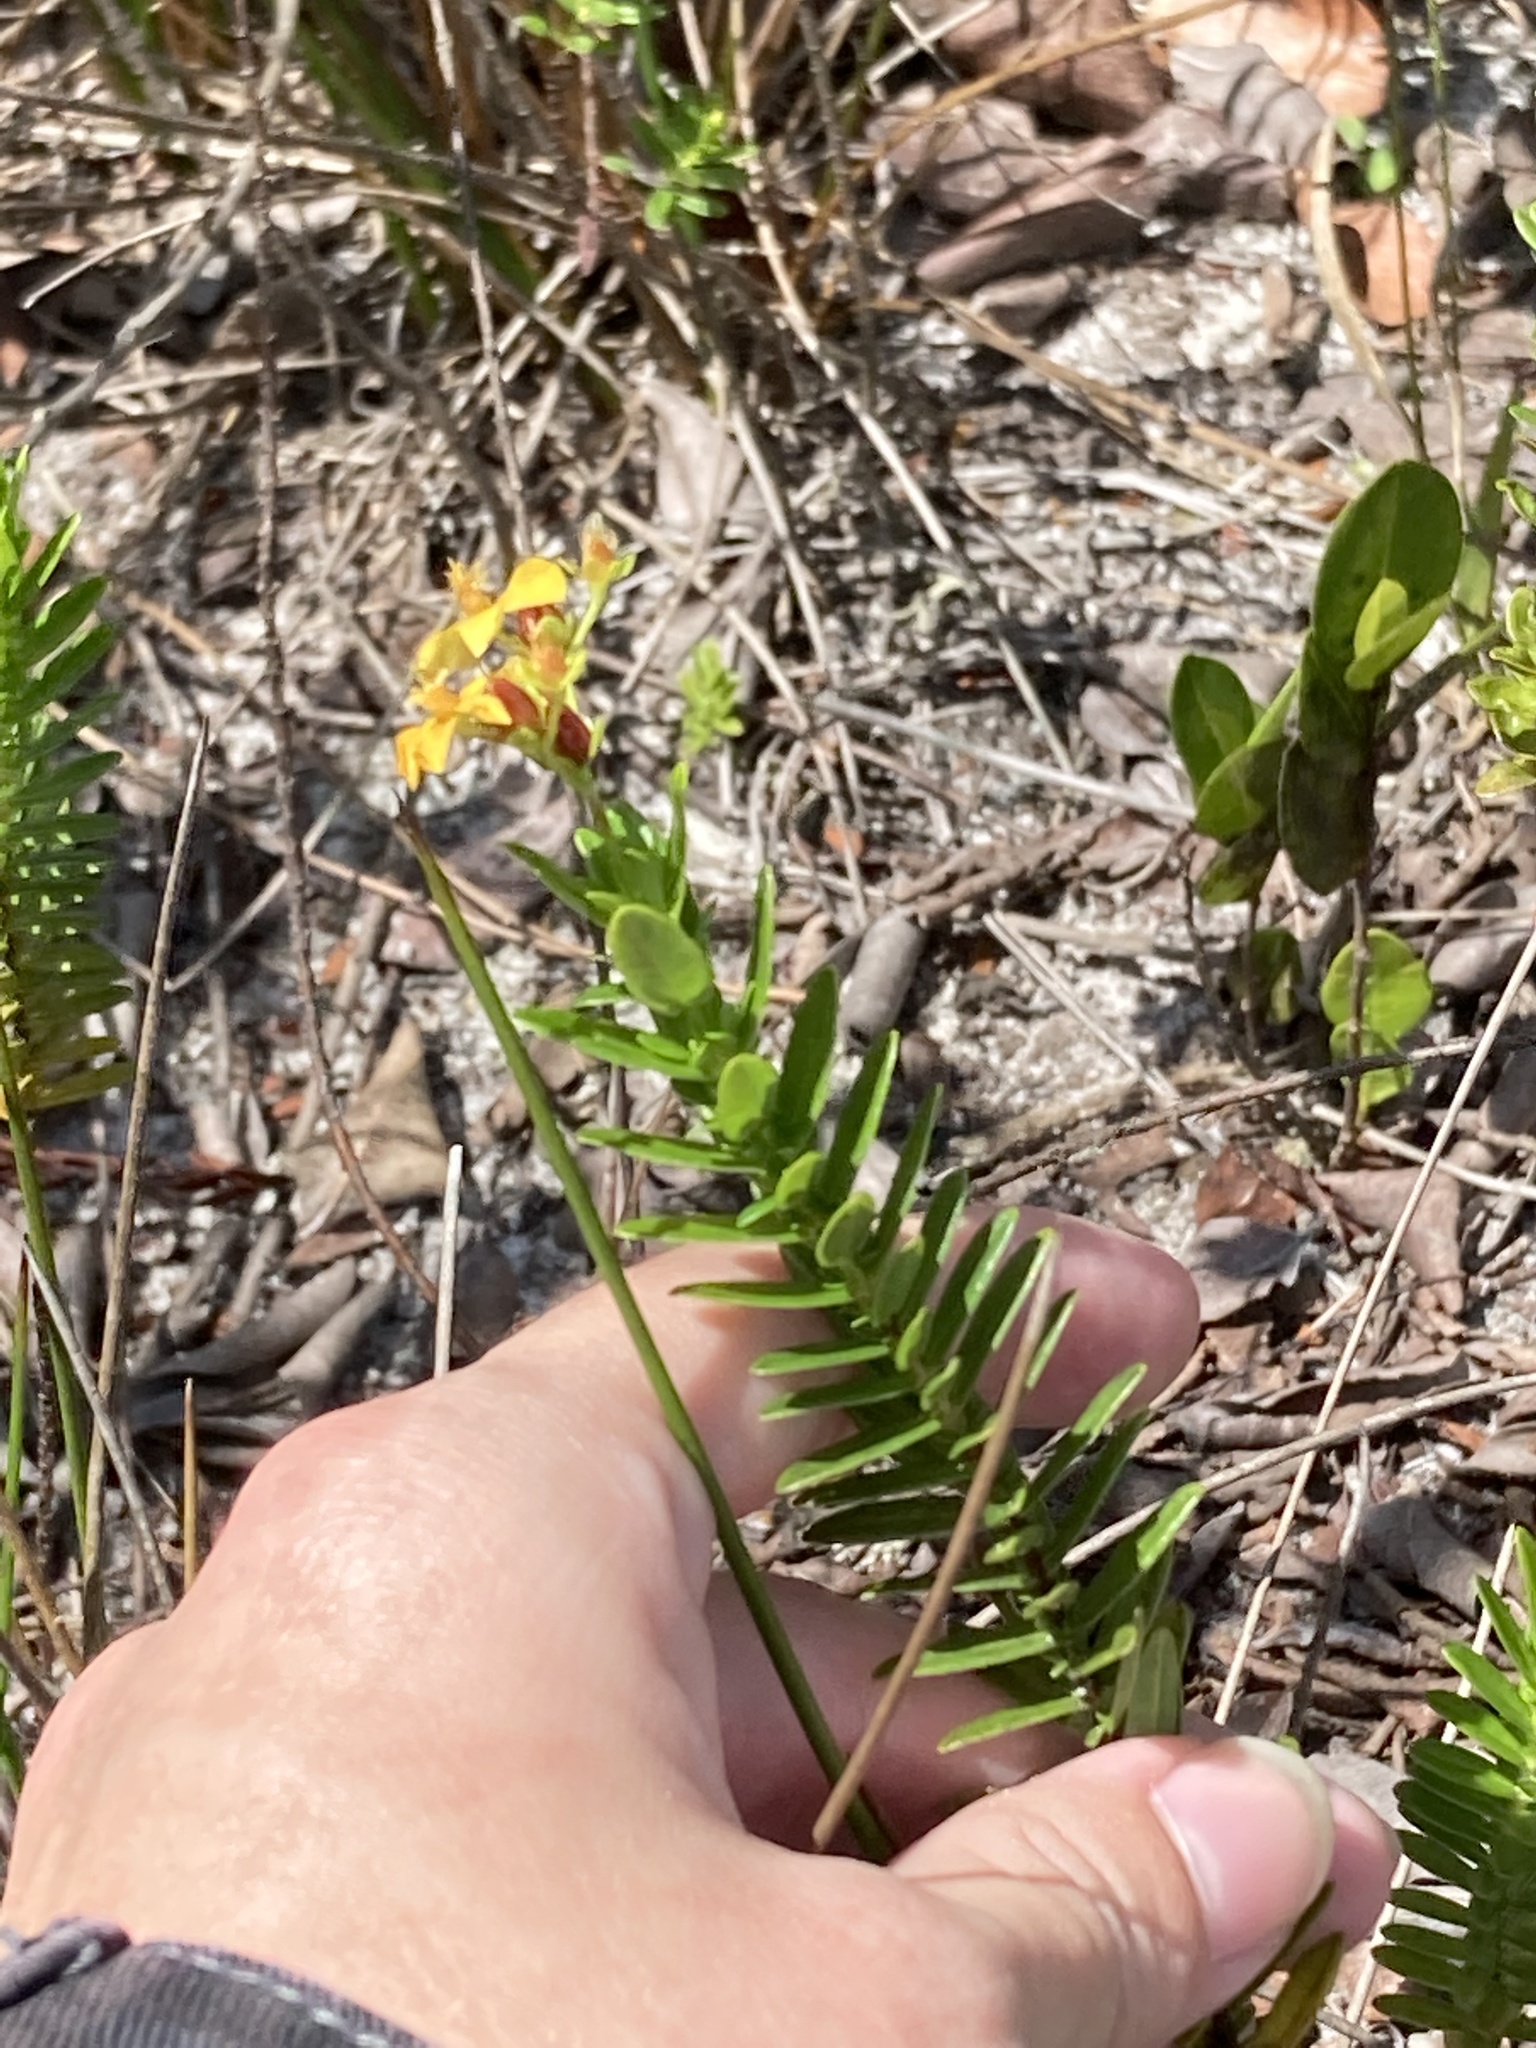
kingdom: Plantae
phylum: Tracheophyta
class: Magnoliopsida
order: Malpighiales
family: Hypericaceae
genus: Hypericum
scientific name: Hypericum cistifolium
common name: Round-pod st. john's-wort
